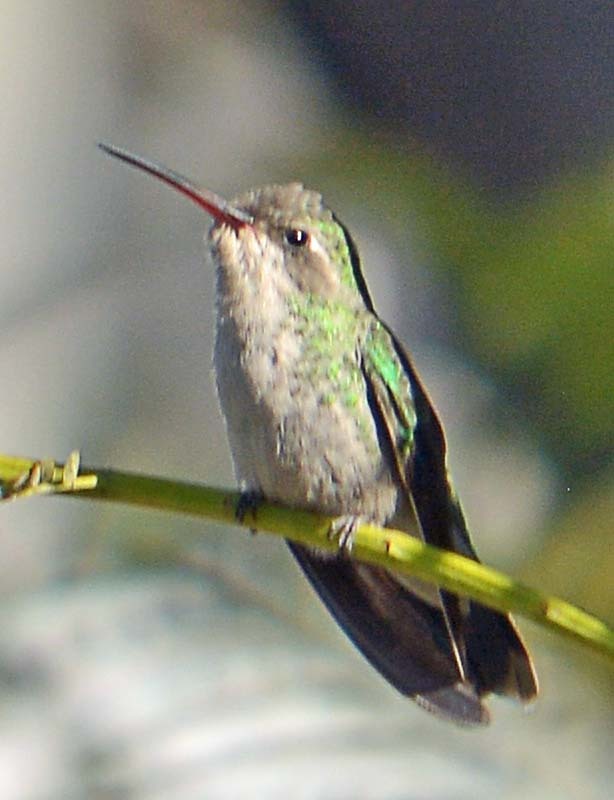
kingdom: Animalia
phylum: Chordata
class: Aves
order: Apodiformes
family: Trochilidae
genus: Cynanthus
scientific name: Cynanthus latirostris
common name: Broad-billed hummingbird
